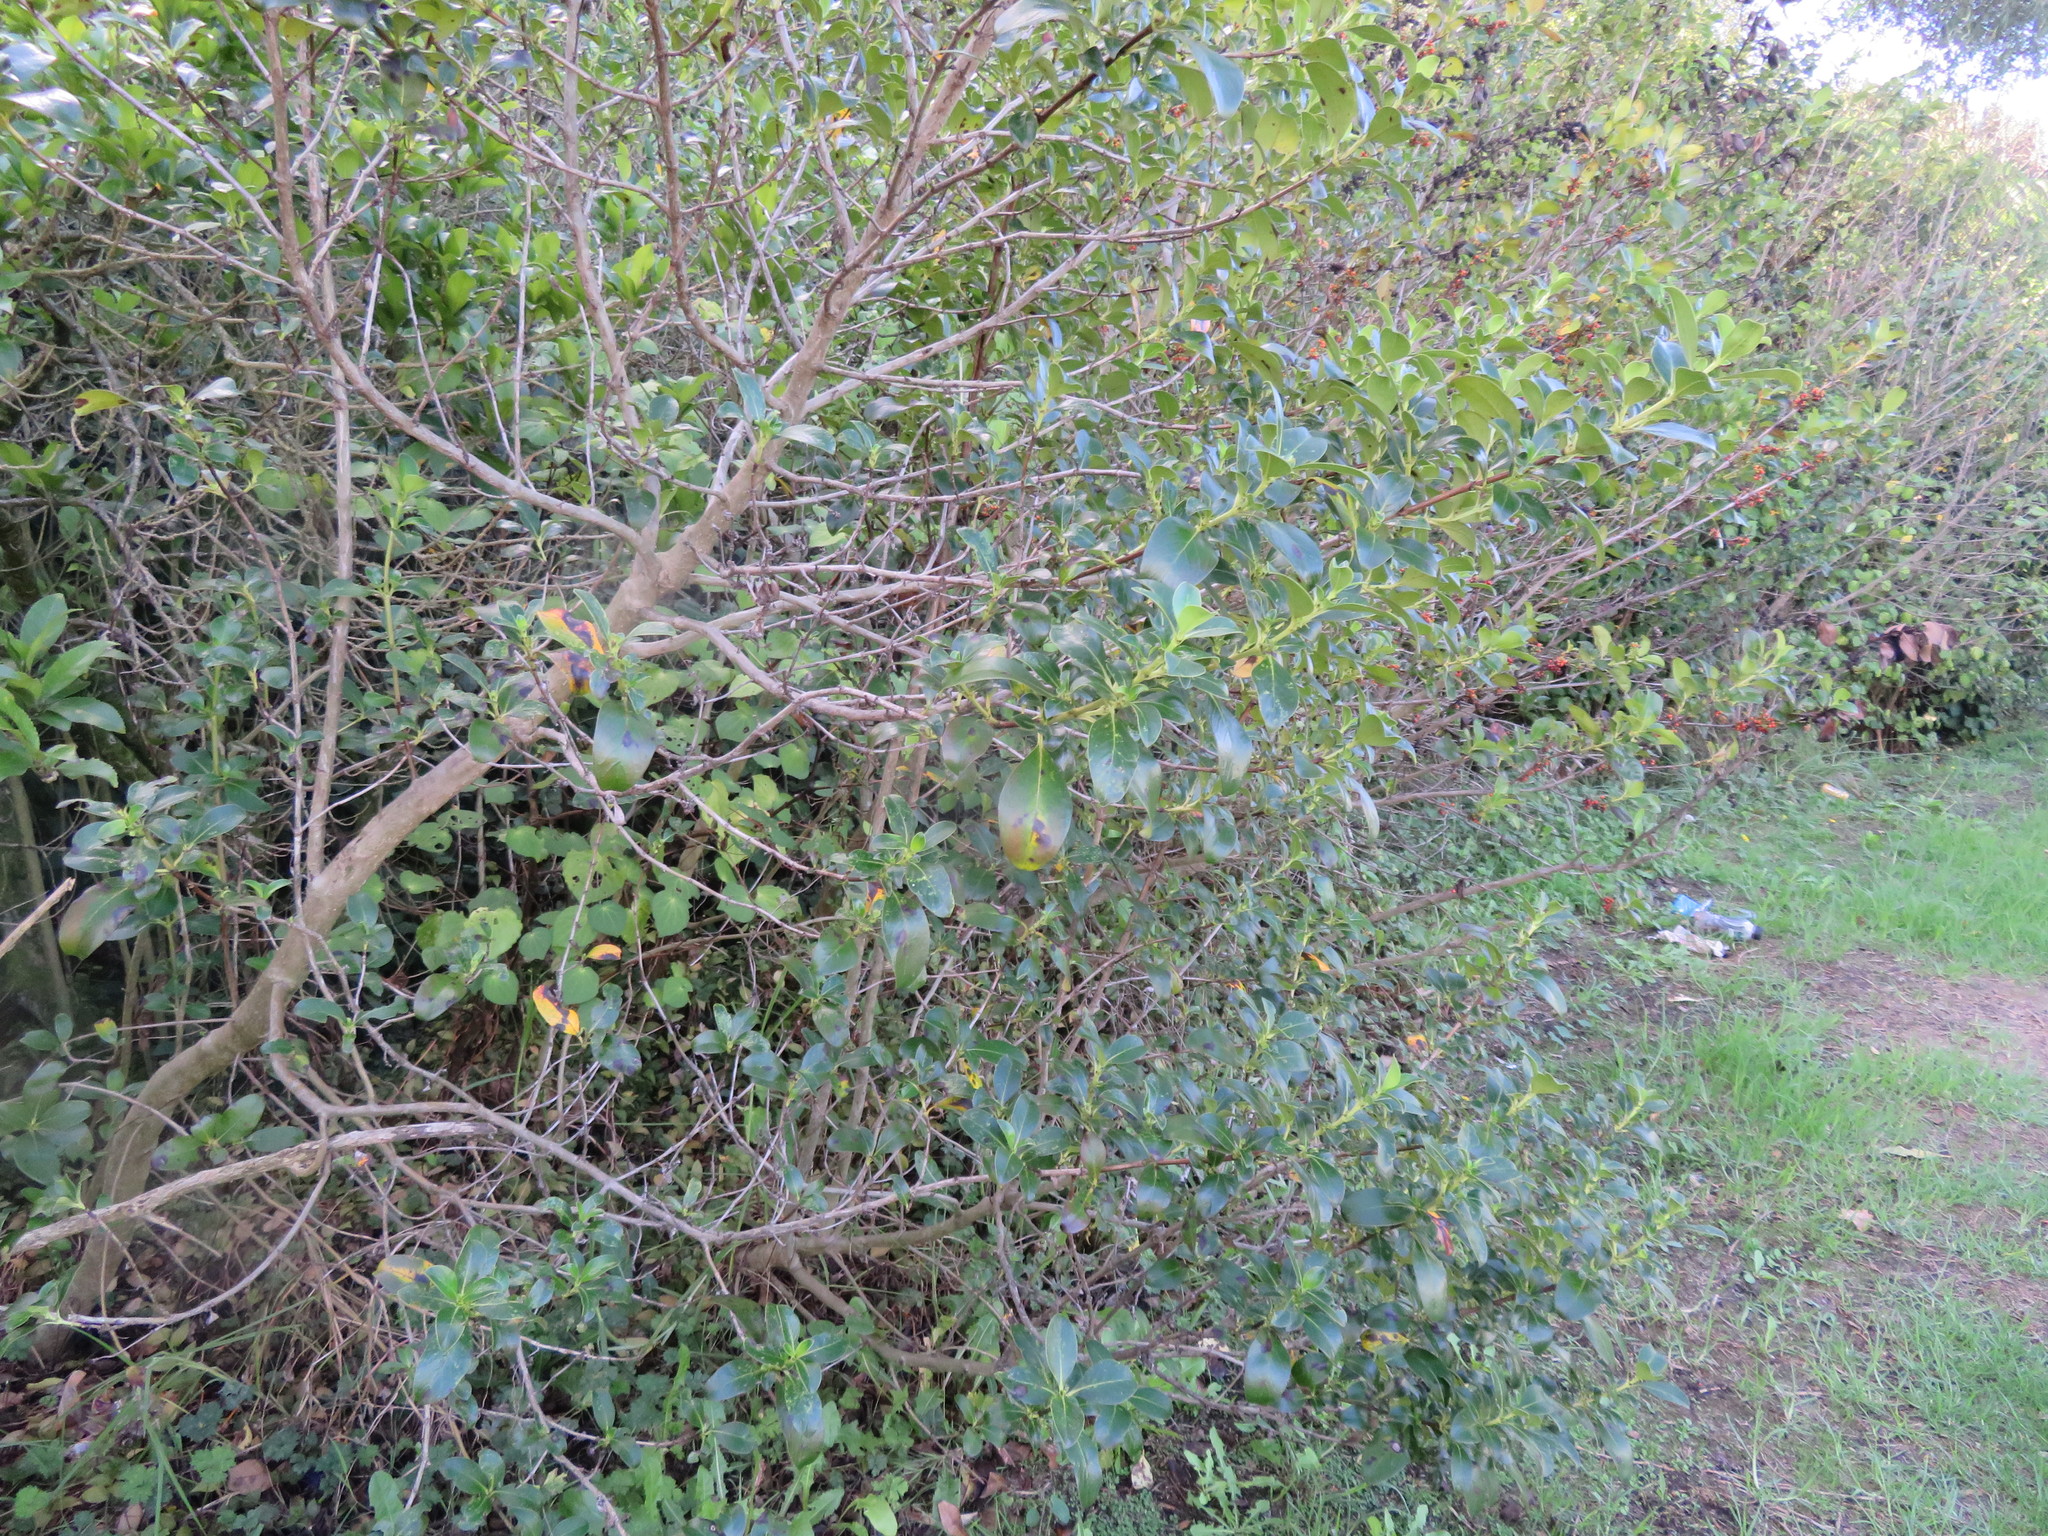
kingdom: Plantae
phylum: Tracheophyta
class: Magnoliopsida
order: Gentianales
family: Rubiaceae
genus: Coprosma
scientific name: Coprosma robusta
